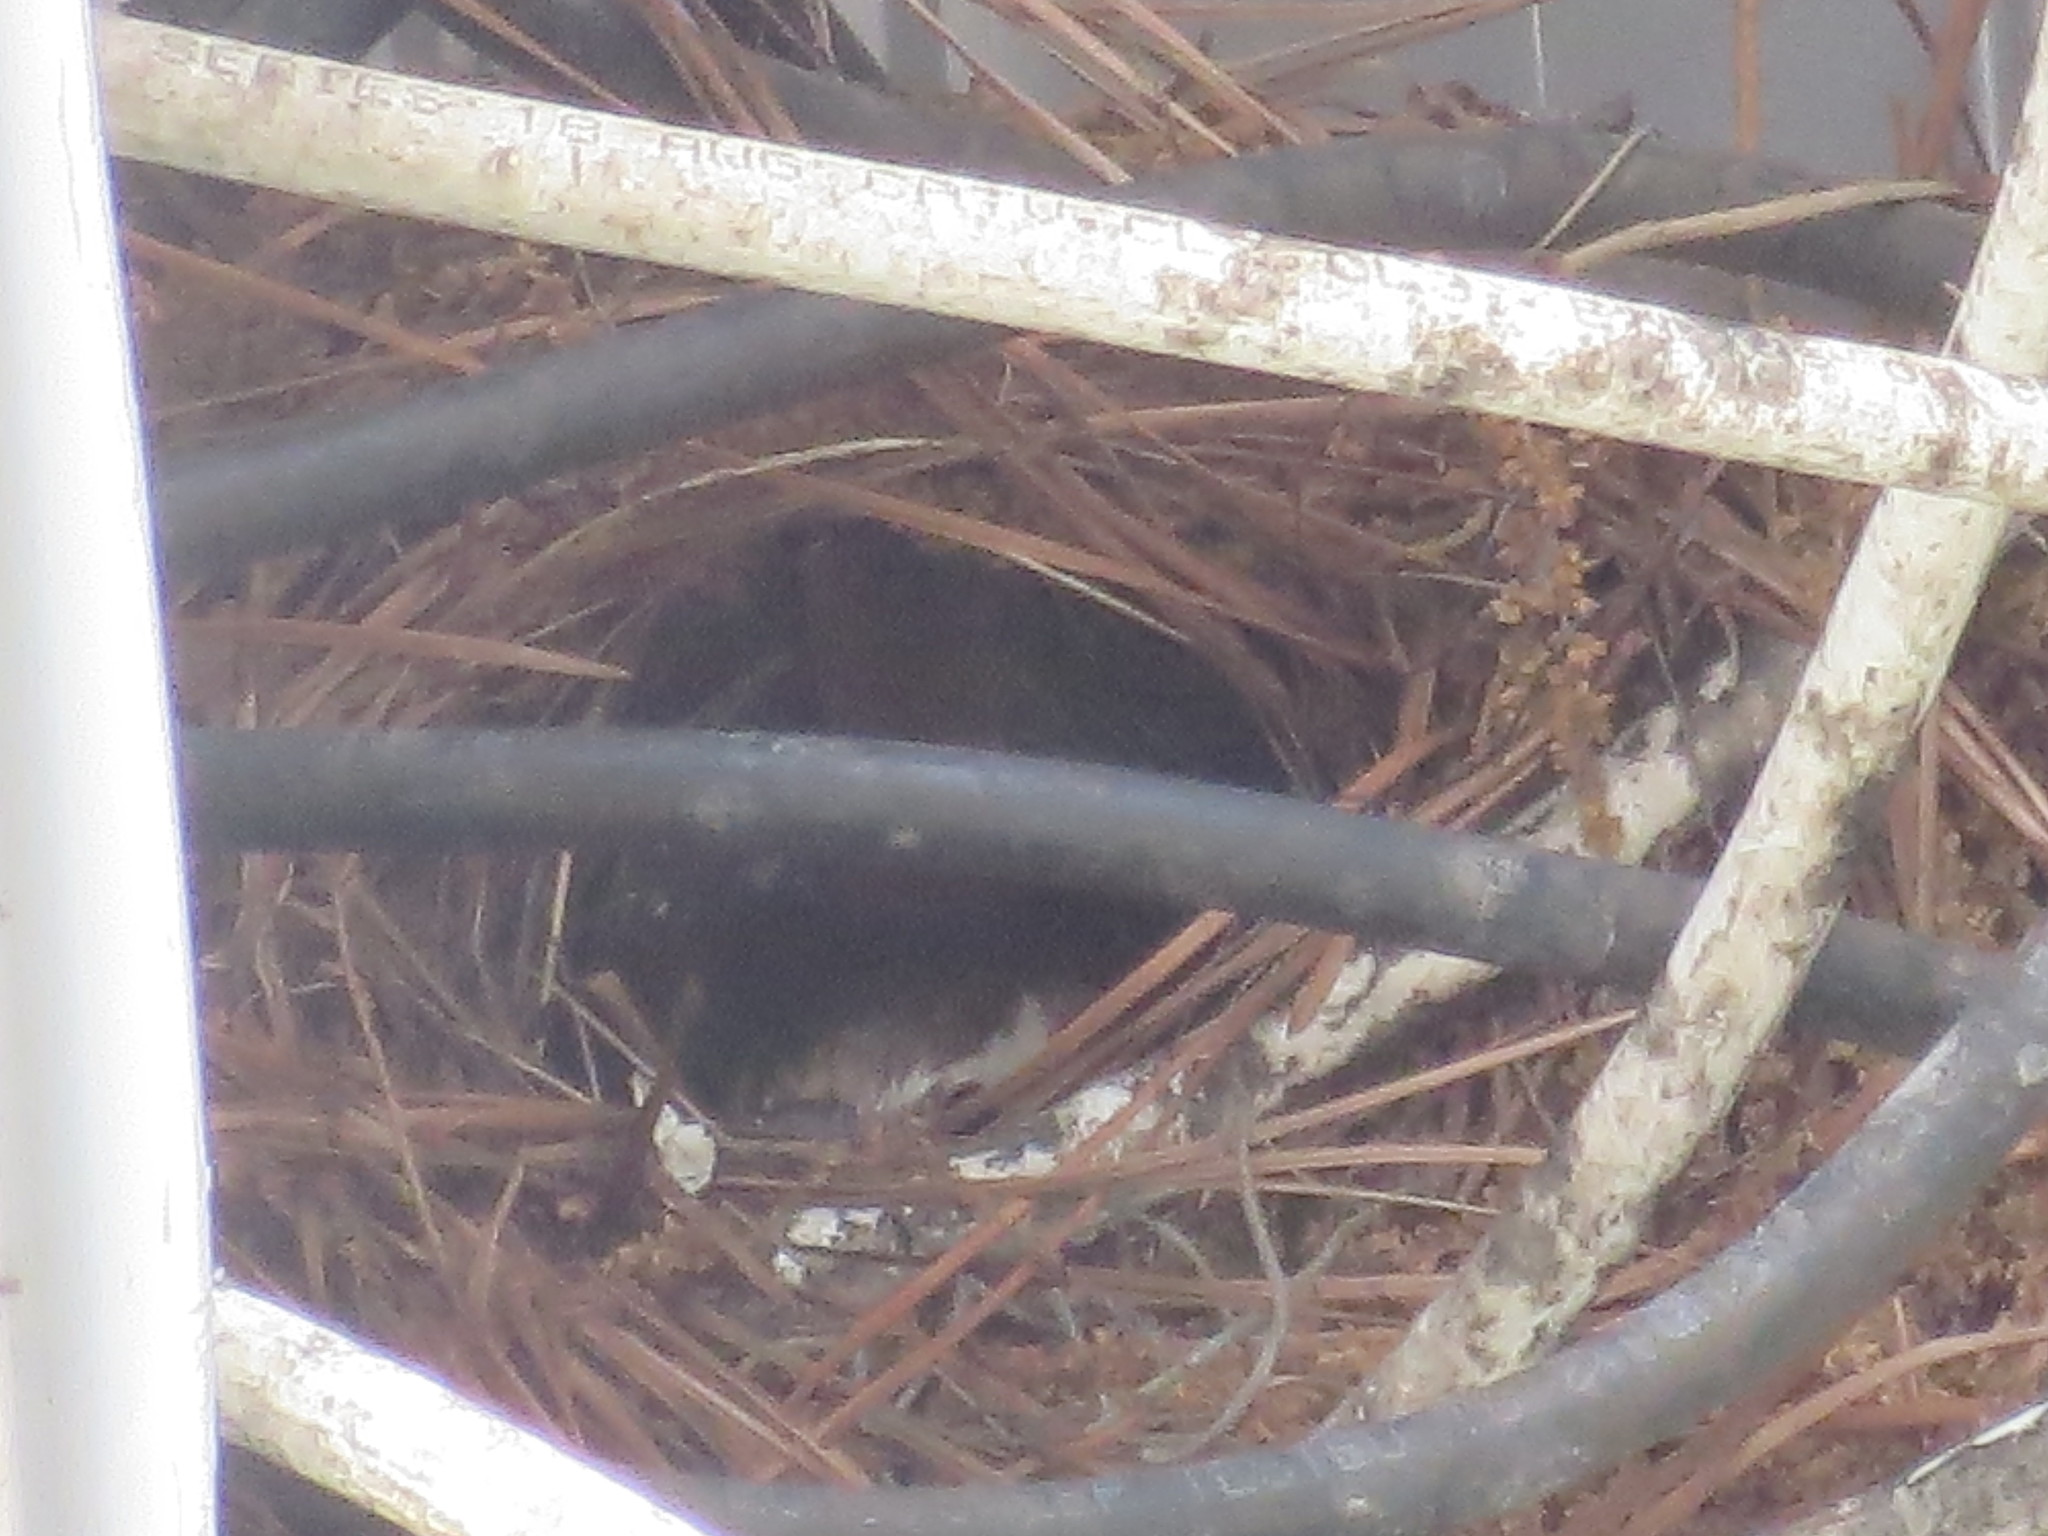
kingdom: Animalia
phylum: Chordata
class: Aves
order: Passeriformes
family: Troglodytidae
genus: Thryothorus
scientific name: Thryothorus ludovicianus
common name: Carolina wren
